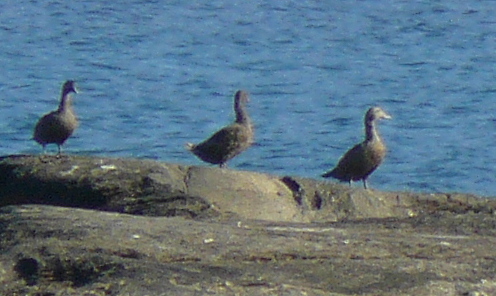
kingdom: Animalia
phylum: Chordata
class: Aves
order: Anseriformes
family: Anatidae
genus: Somateria
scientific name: Somateria mollissima
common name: Common eider
